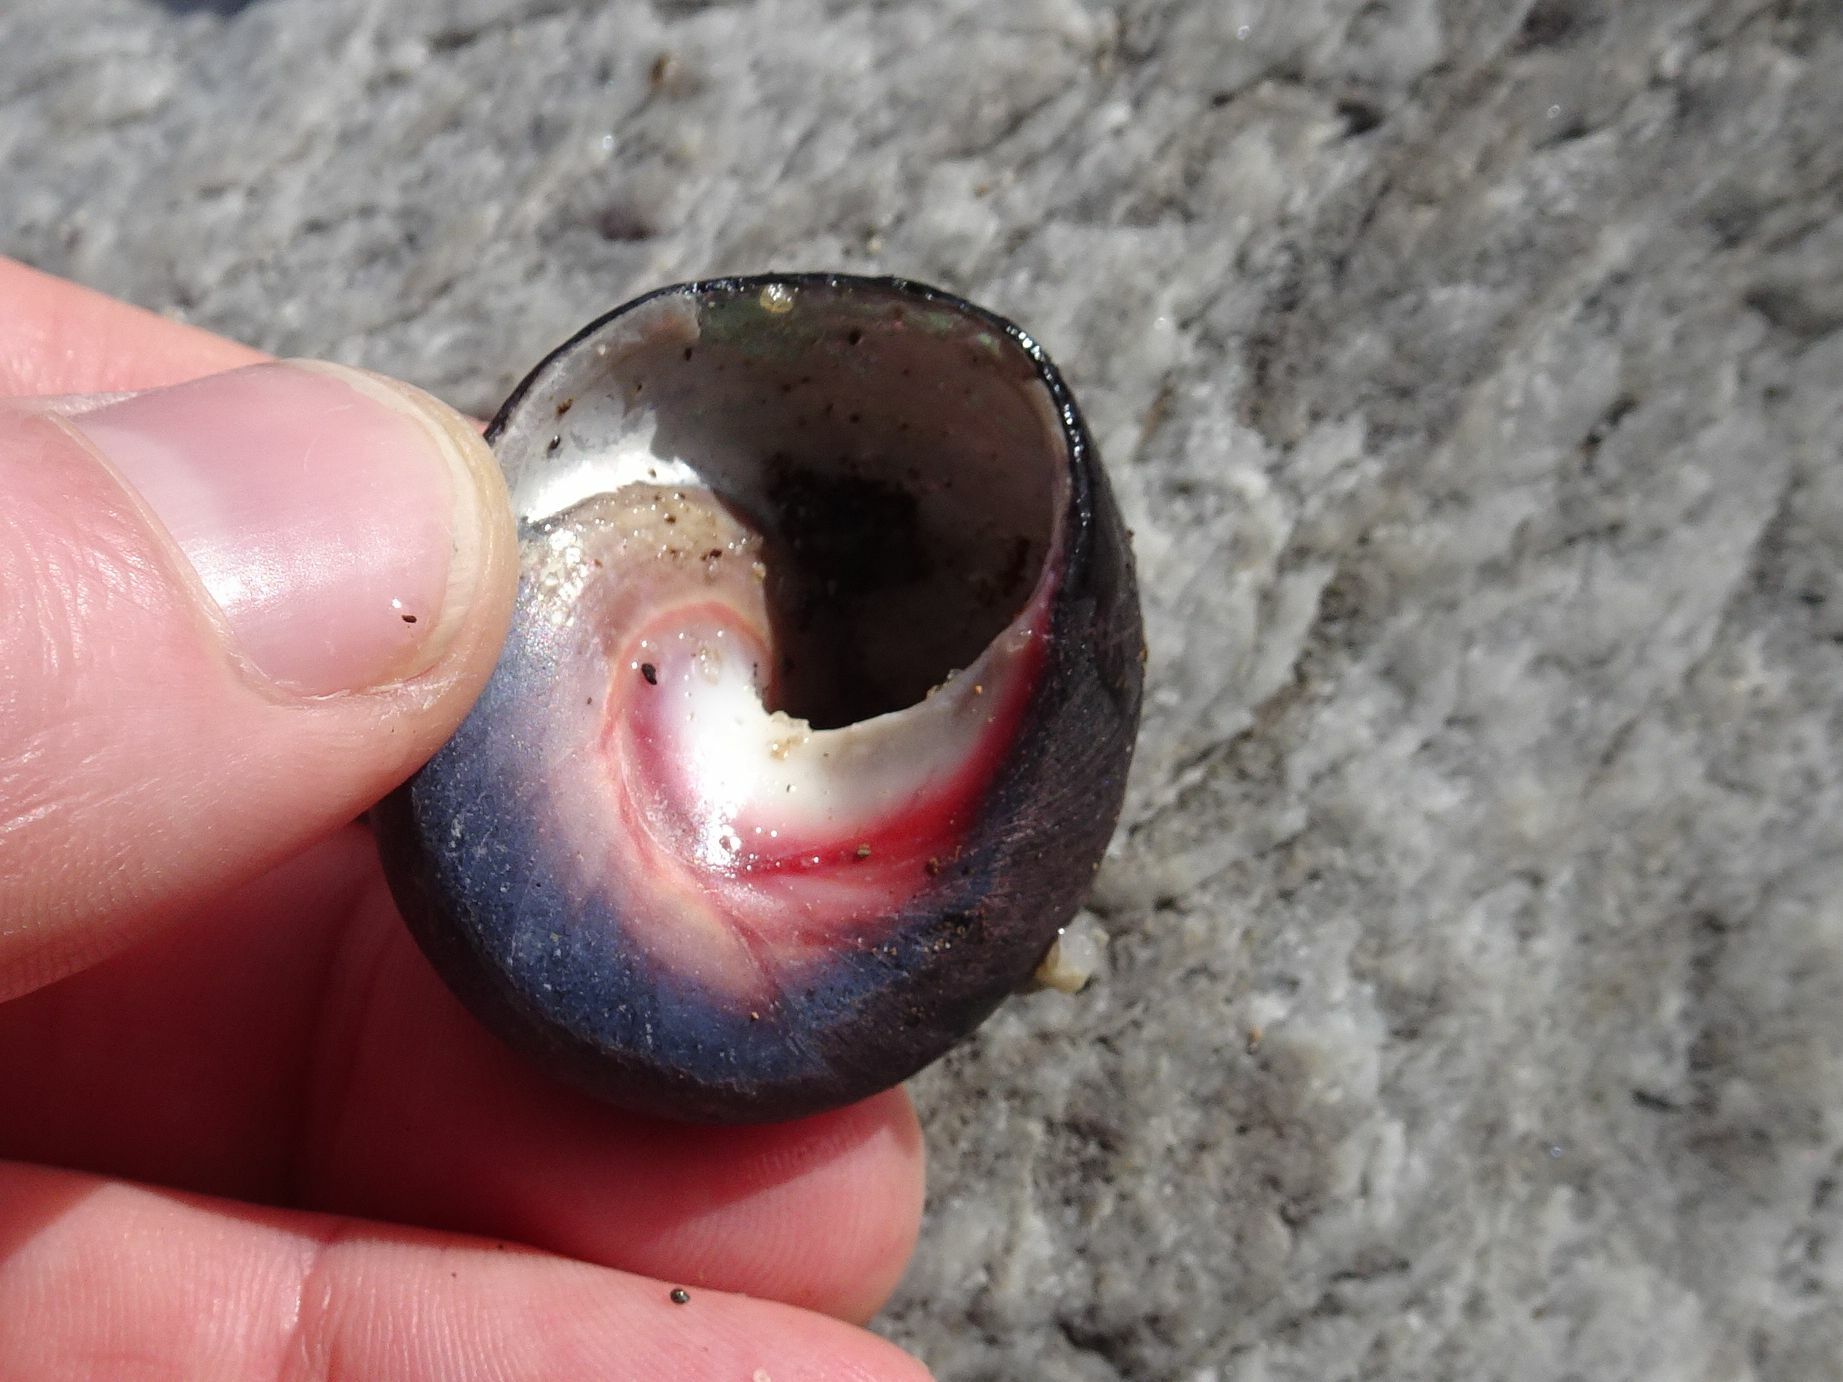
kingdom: Animalia
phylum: Mollusca
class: Gastropoda
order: Trochida
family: Trochidae
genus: Oxystele
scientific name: Oxystele sinensis
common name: Pink-lipped topshell
